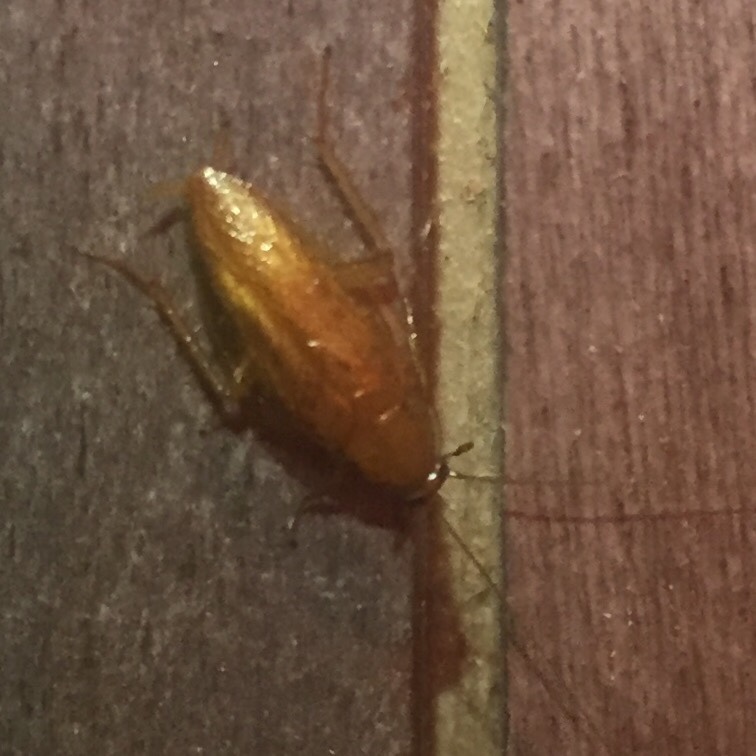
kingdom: Animalia
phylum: Arthropoda
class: Insecta
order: Blattodea
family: Ectobiidae
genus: Ectobius
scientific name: Ectobius pallidus
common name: Tawny cockroach
